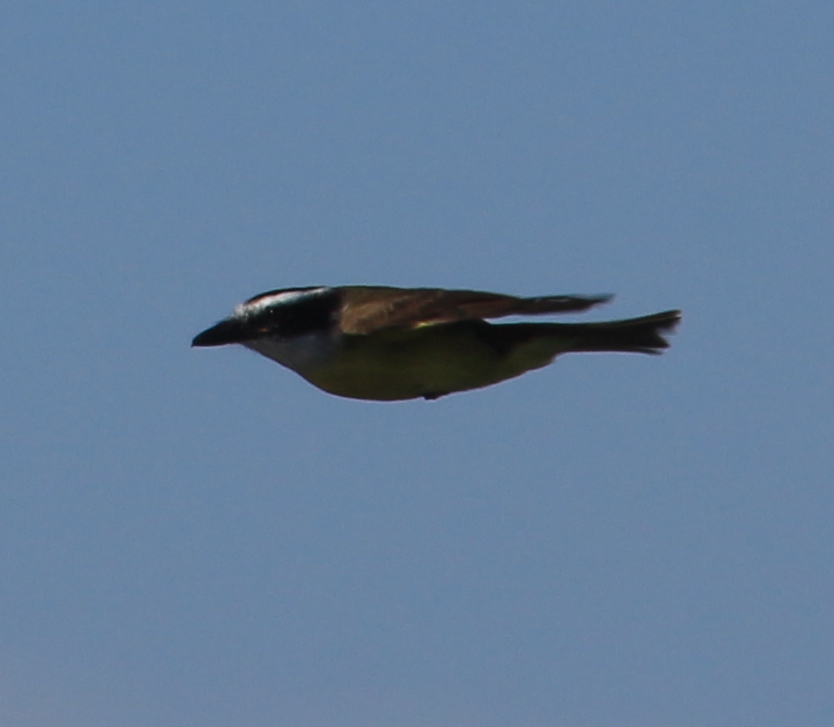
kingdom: Animalia
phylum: Chordata
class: Aves
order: Passeriformes
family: Tyrannidae
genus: Pitangus
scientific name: Pitangus sulphuratus
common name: Great kiskadee
